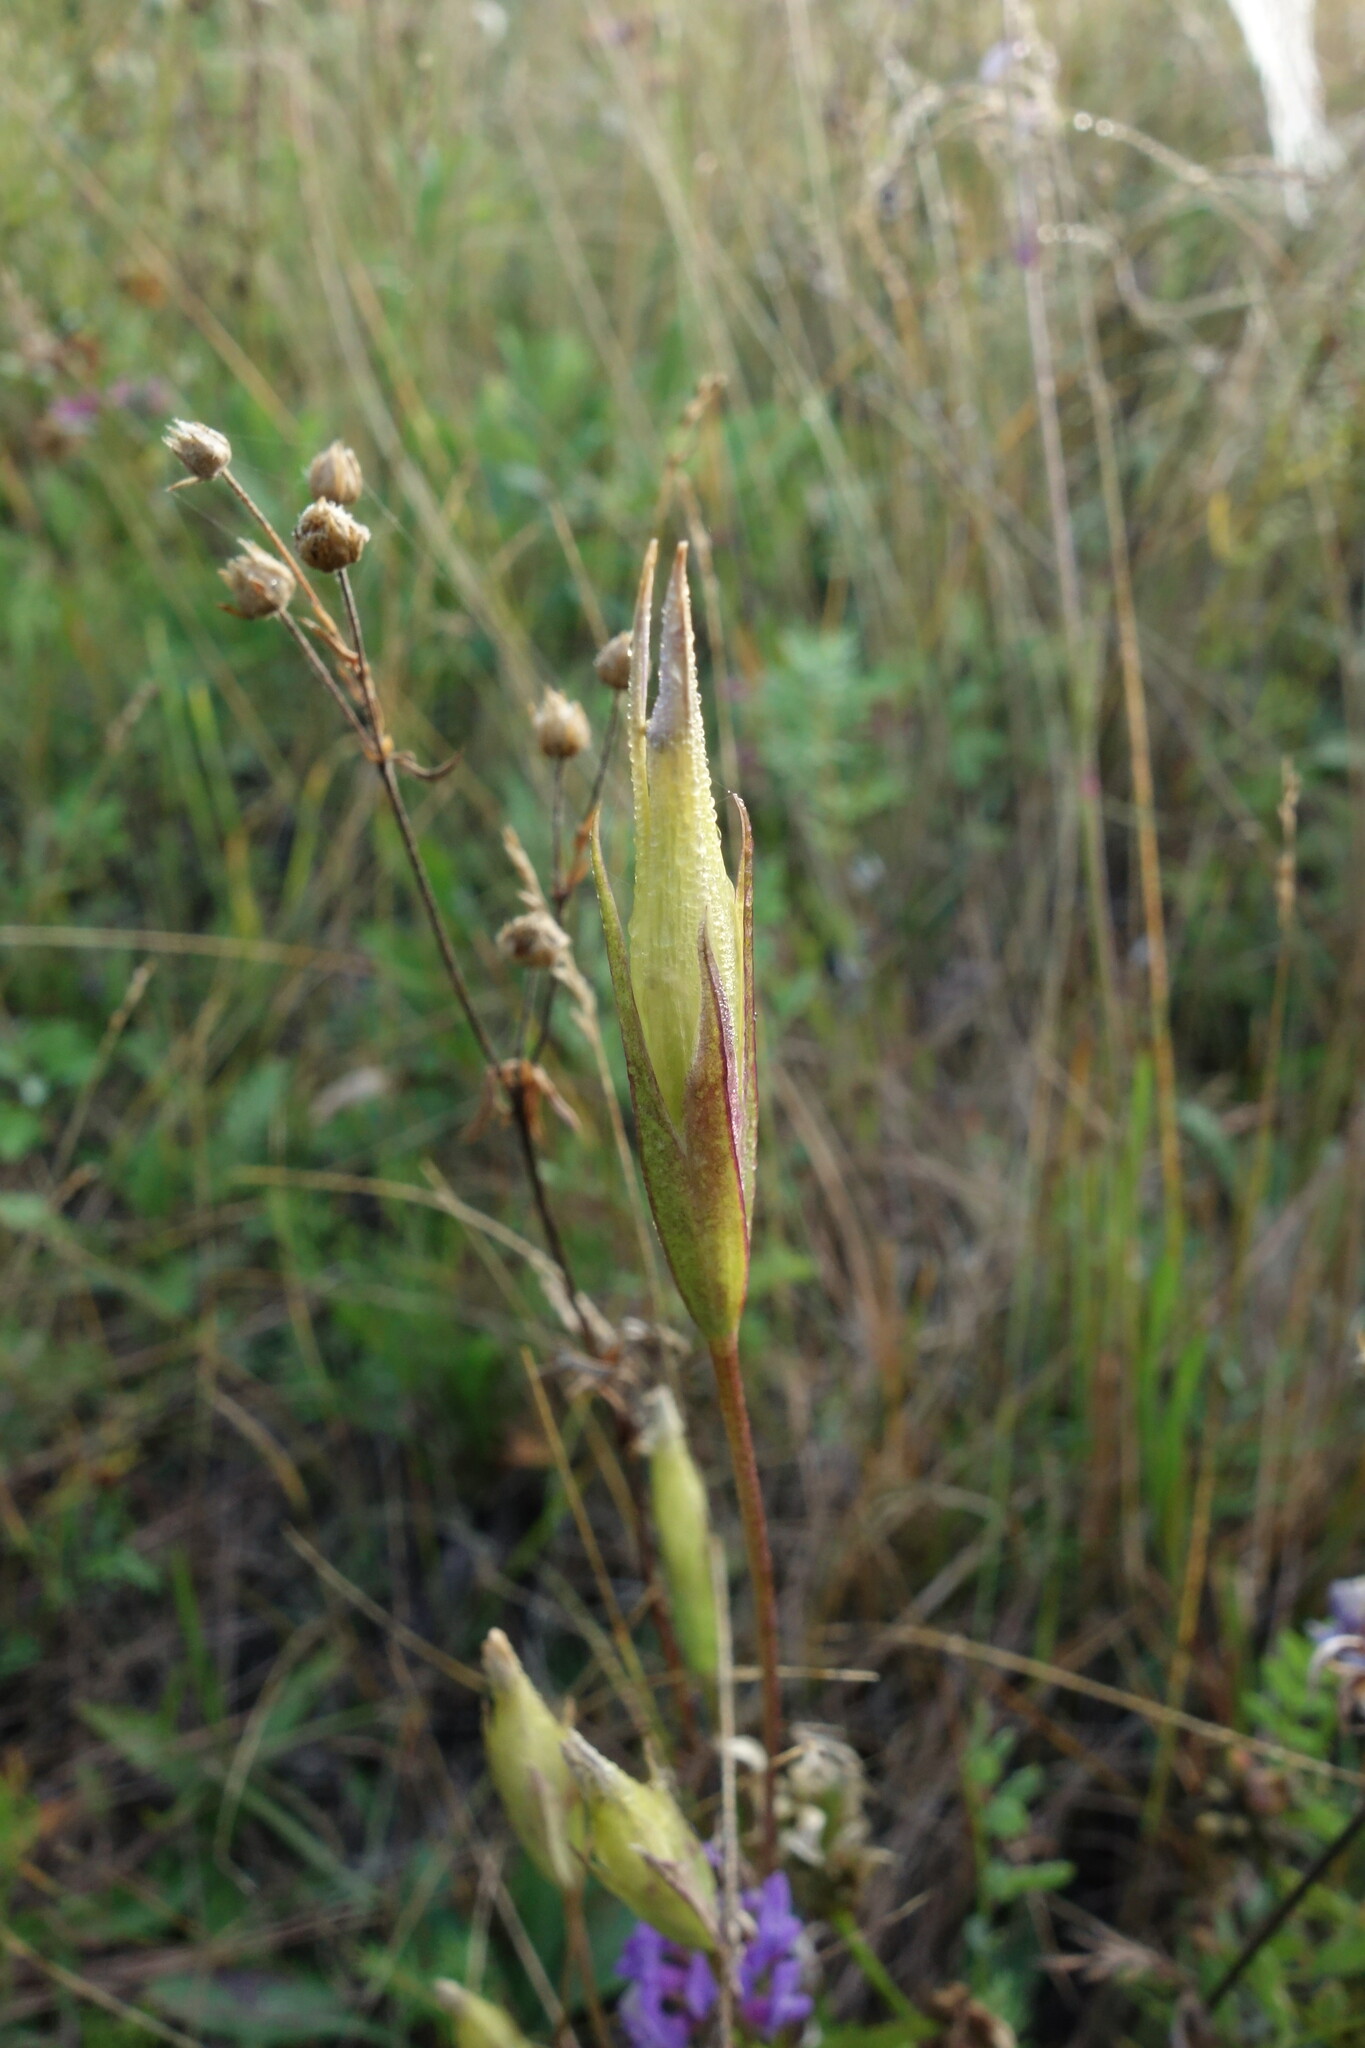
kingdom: Plantae
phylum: Tracheophyta
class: Magnoliopsida
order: Gentianales
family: Gentianaceae
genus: Gentianopsis
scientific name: Gentianopsis barbata
